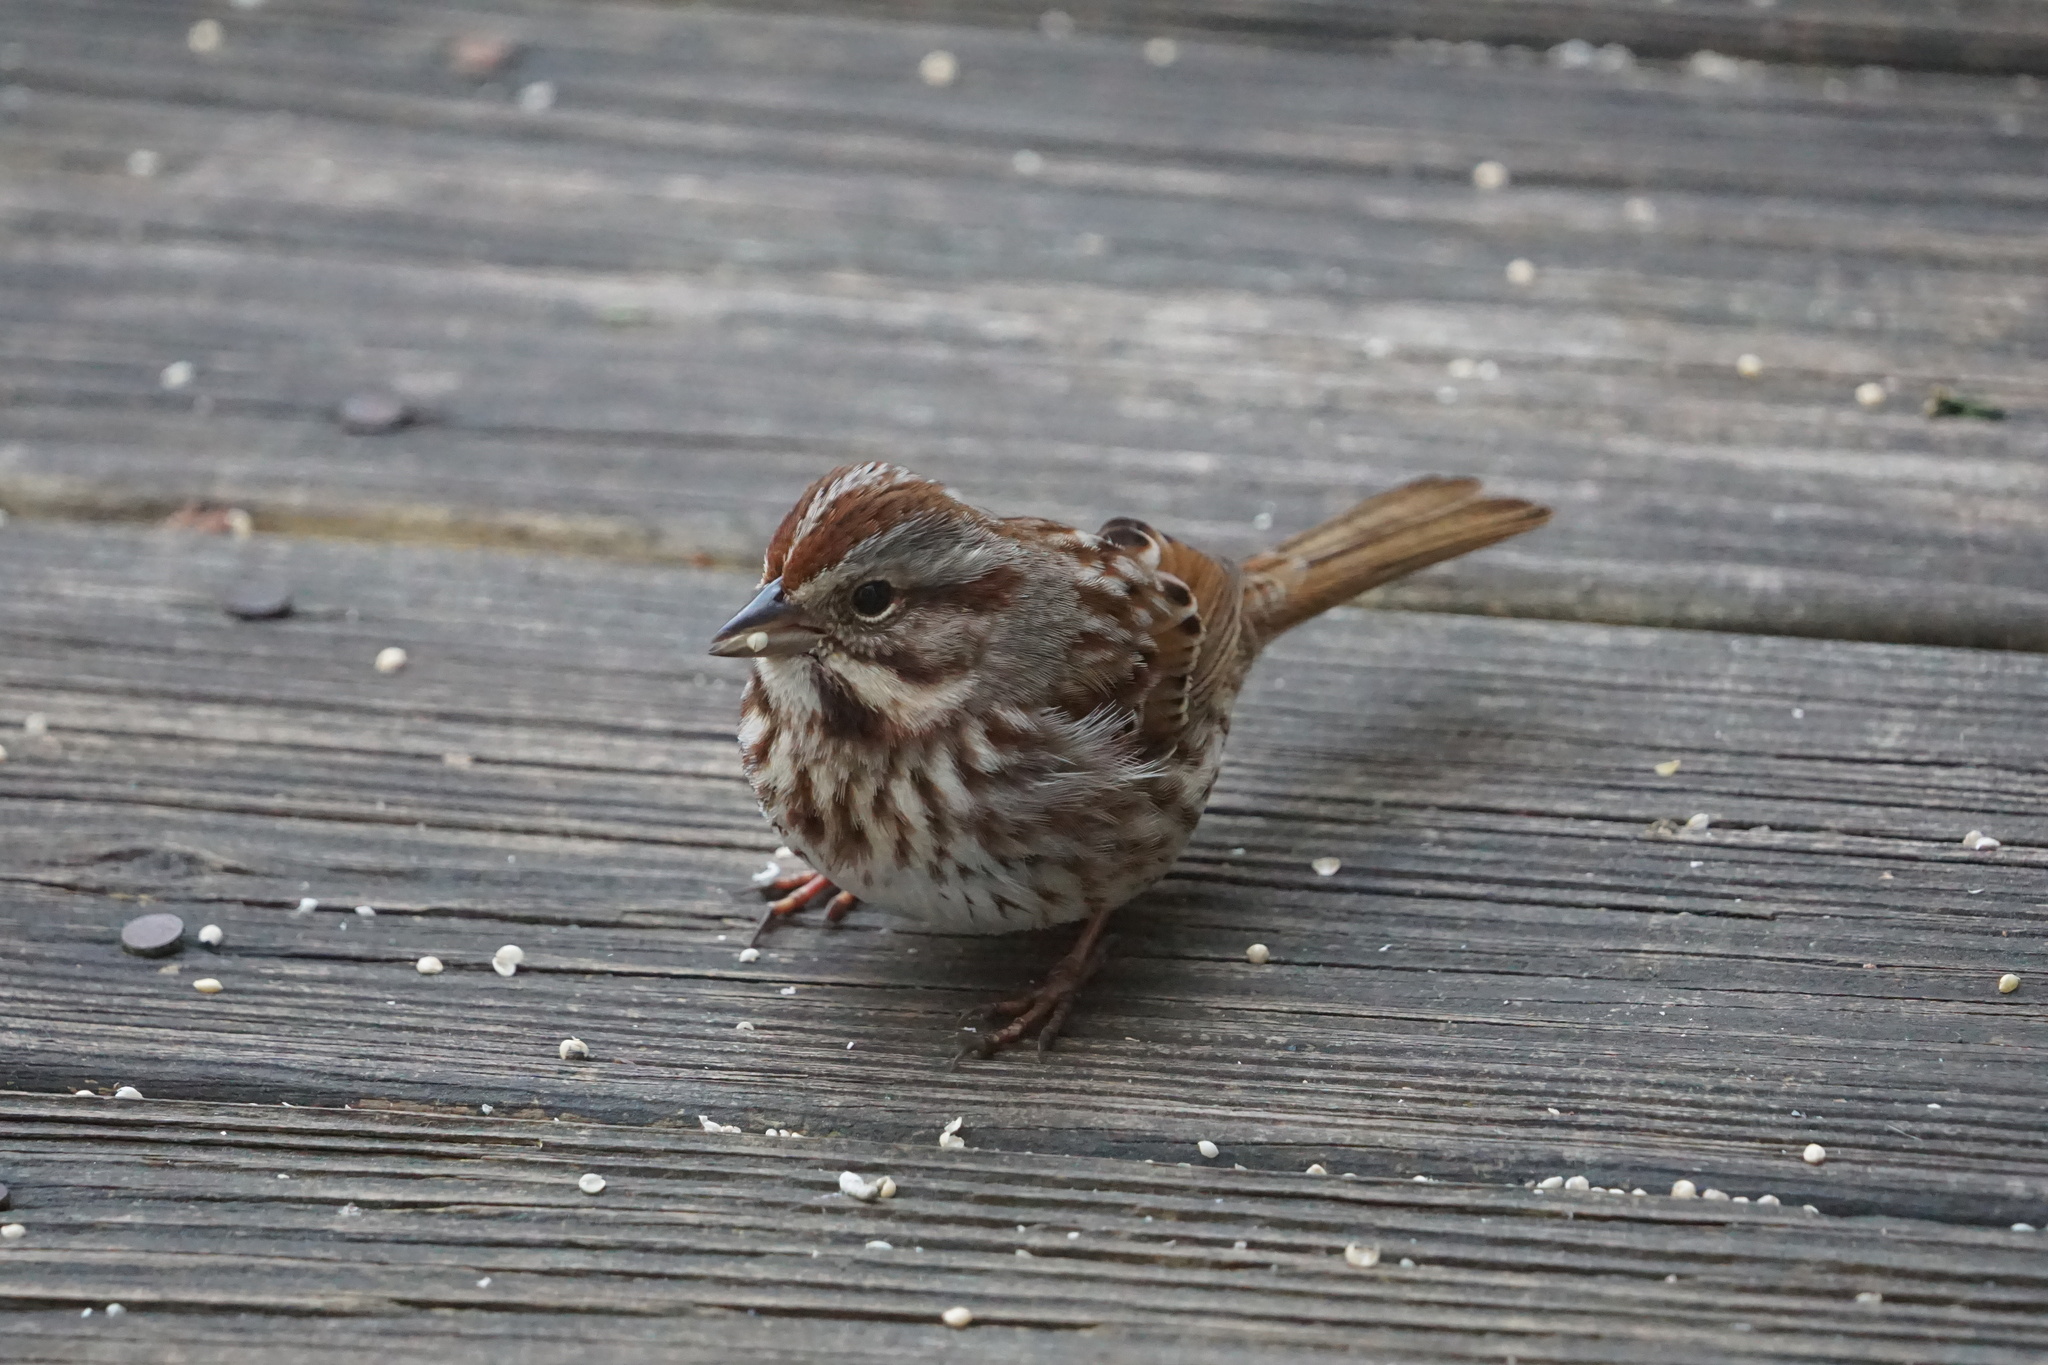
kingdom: Animalia
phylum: Chordata
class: Aves
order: Passeriformes
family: Passerellidae
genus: Melospiza
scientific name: Melospiza melodia
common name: Song sparrow
